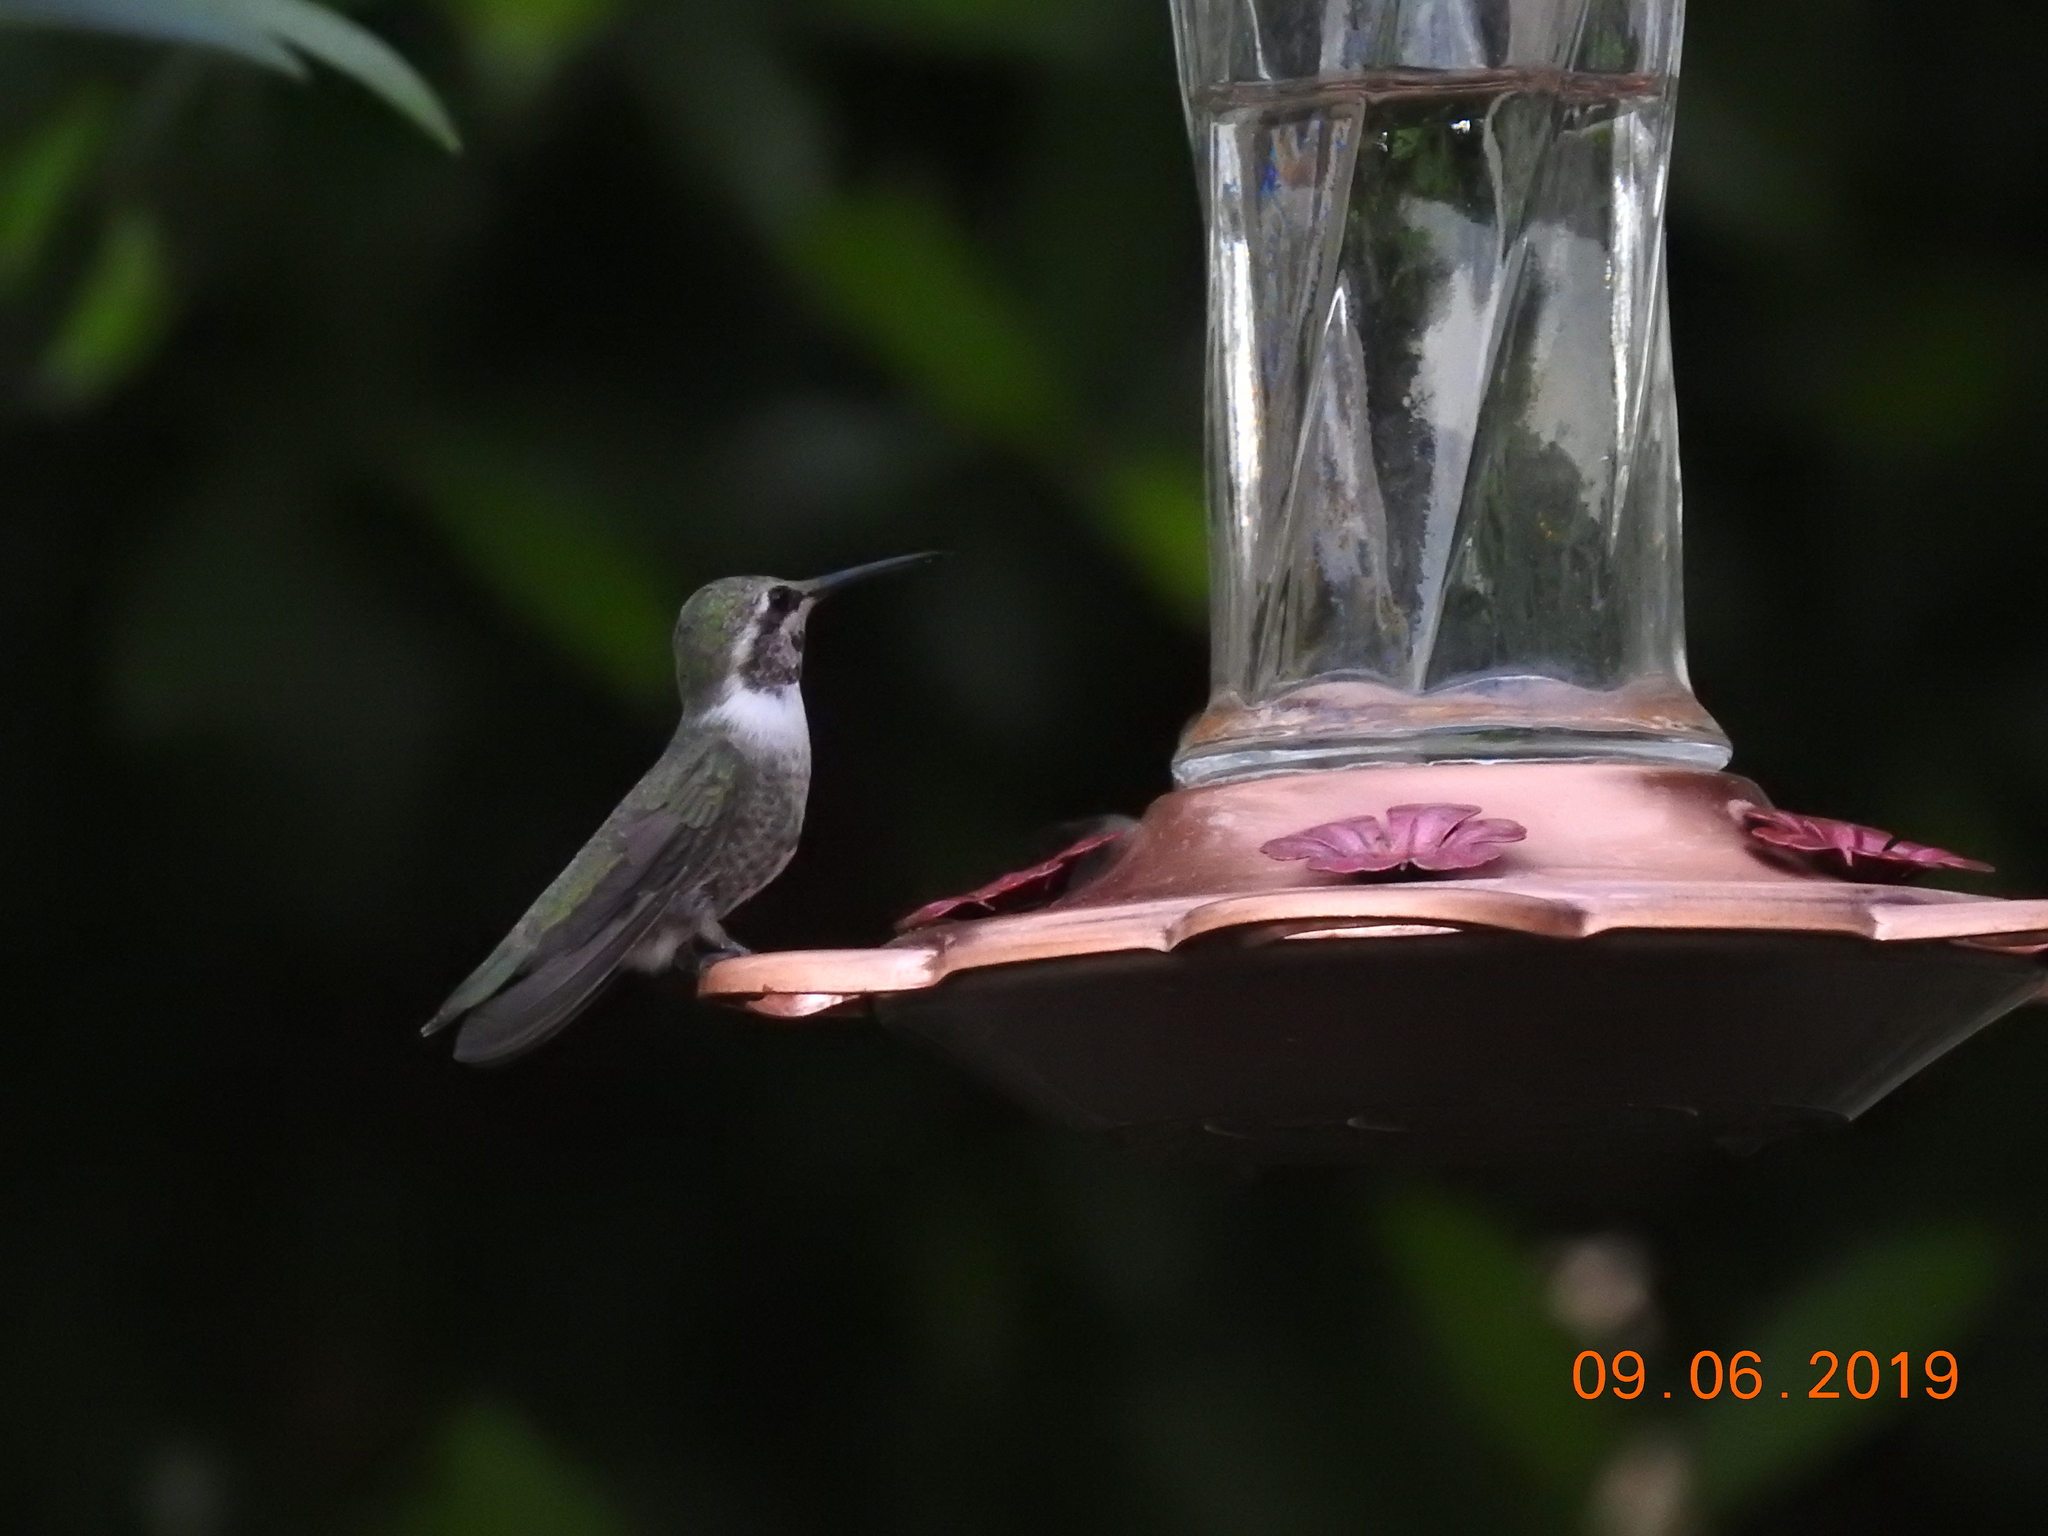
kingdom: Animalia
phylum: Chordata
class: Aves
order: Apodiformes
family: Trochilidae
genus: Calypte
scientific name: Calypte costae
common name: Costa's hummingbird
